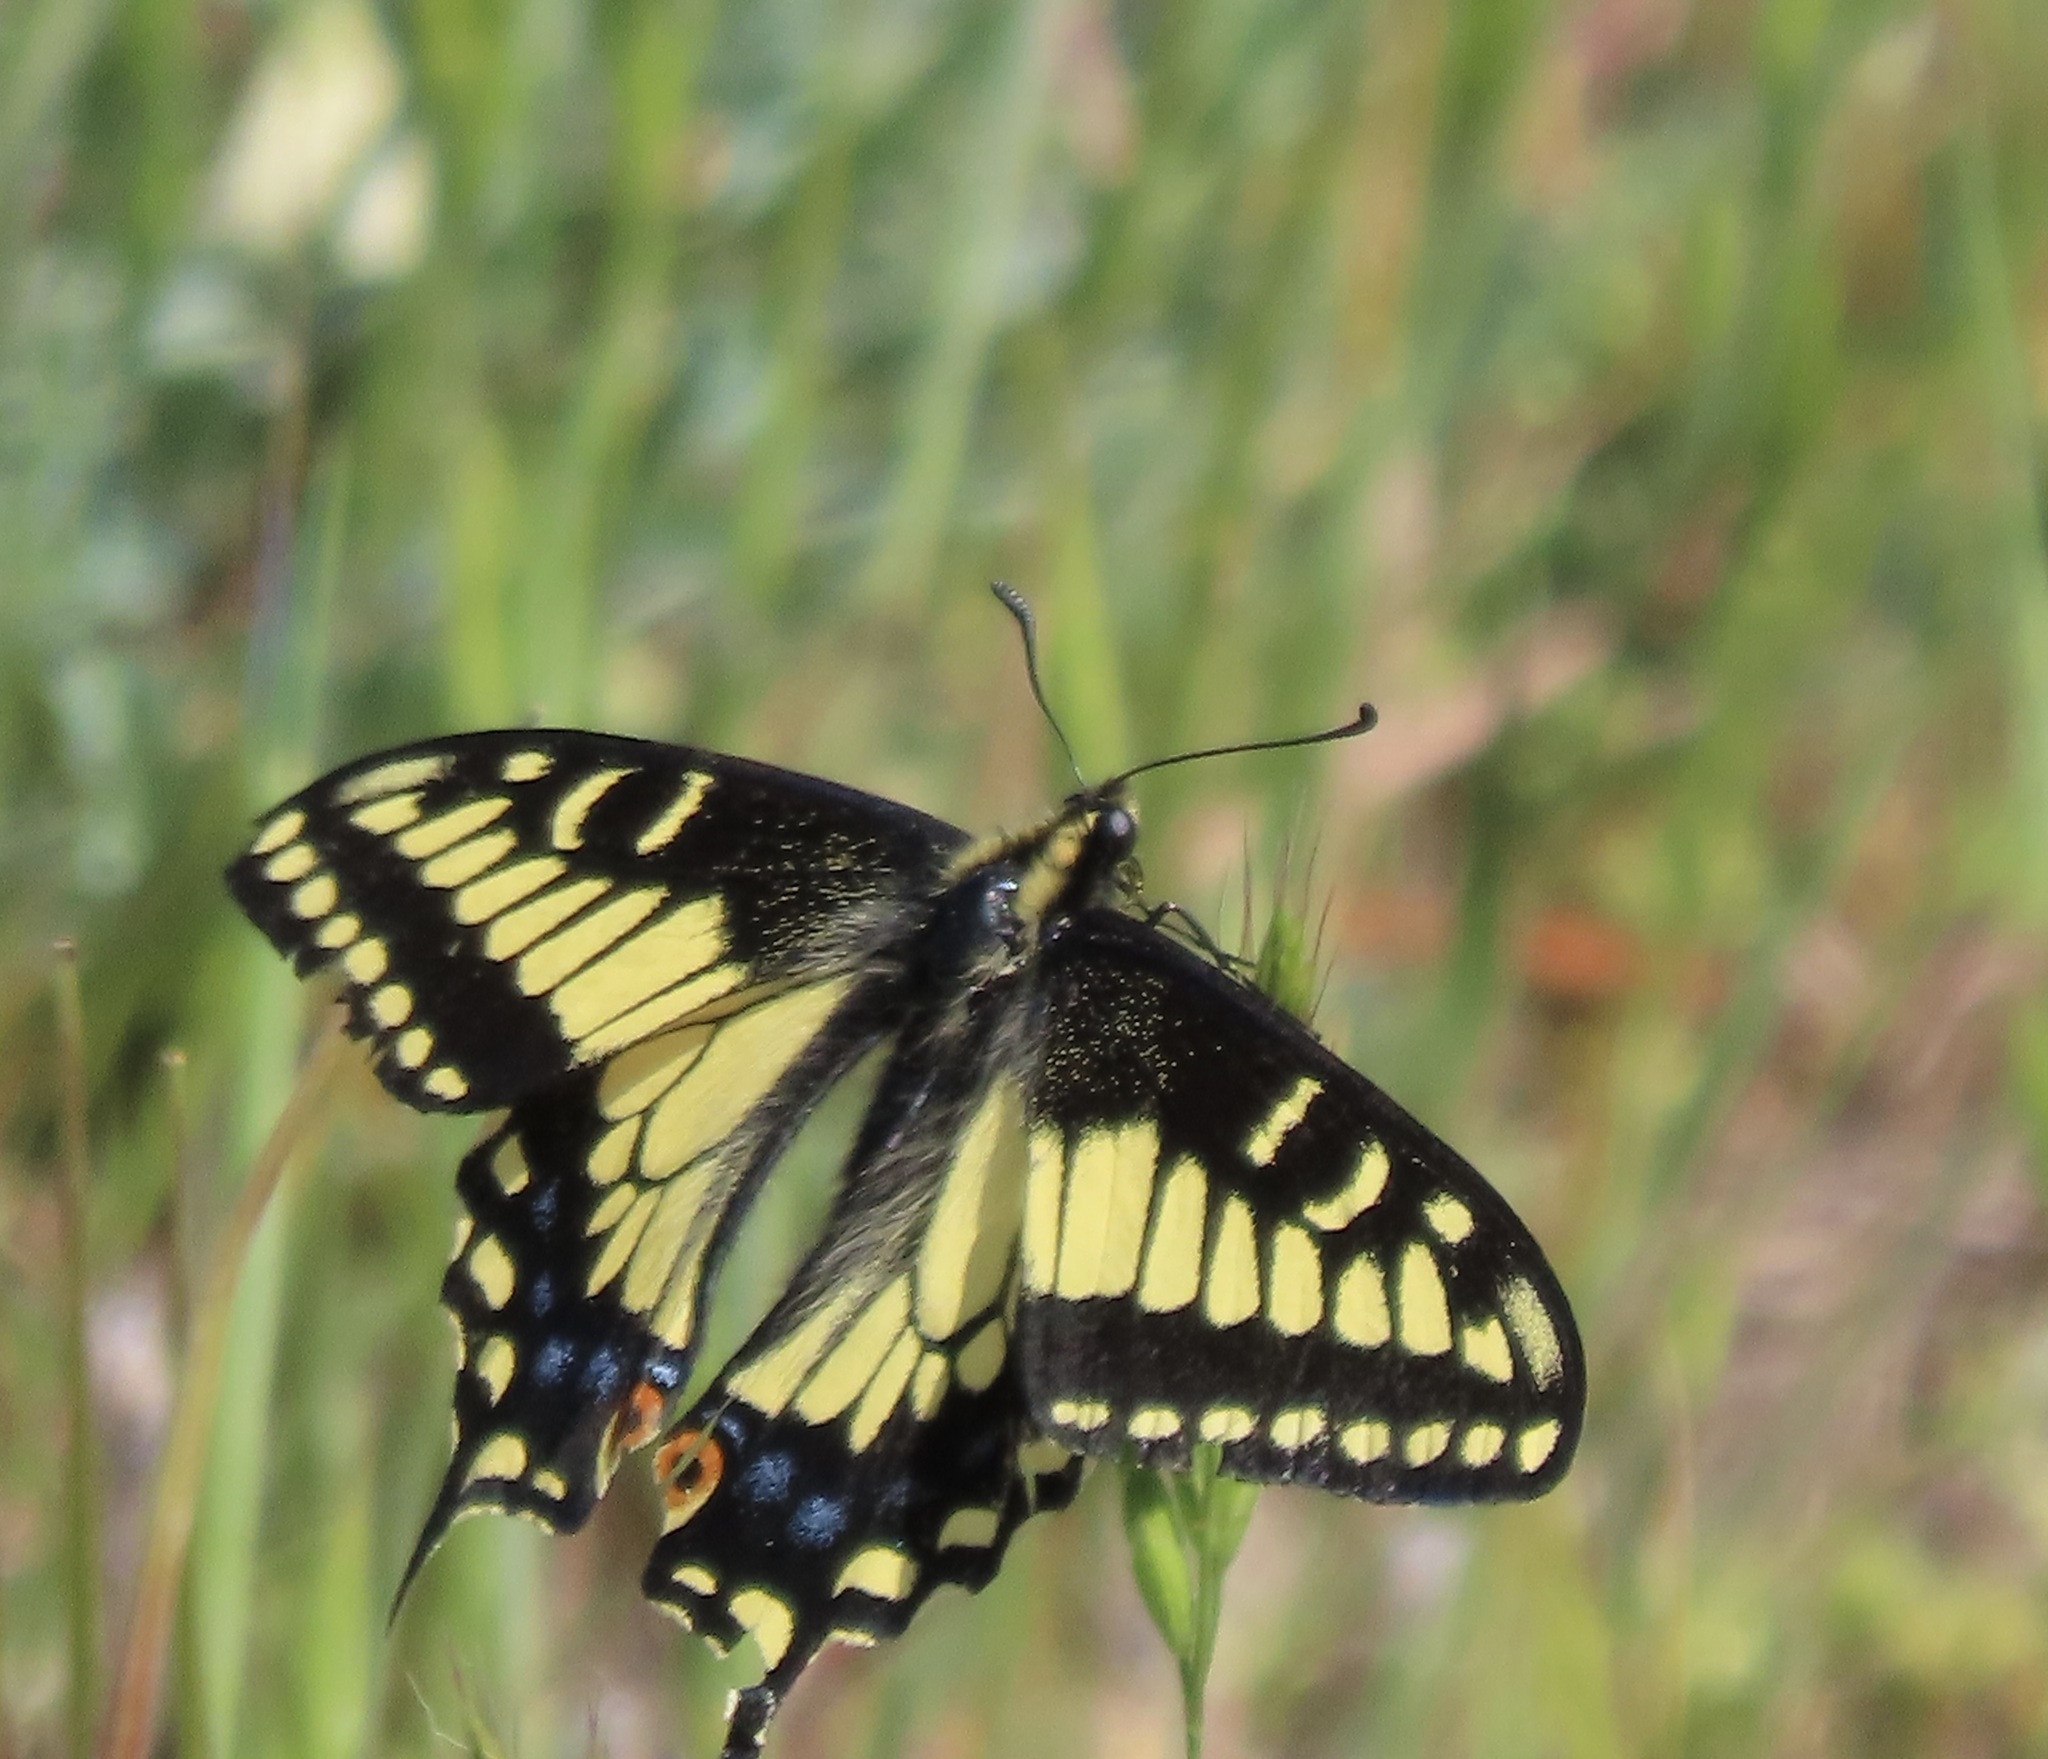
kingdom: Animalia
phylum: Arthropoda
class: Insecta
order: Lepidoptera
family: Papilionidae
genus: Papilio
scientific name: Papilio zelicaon
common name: Anise swallowtail
